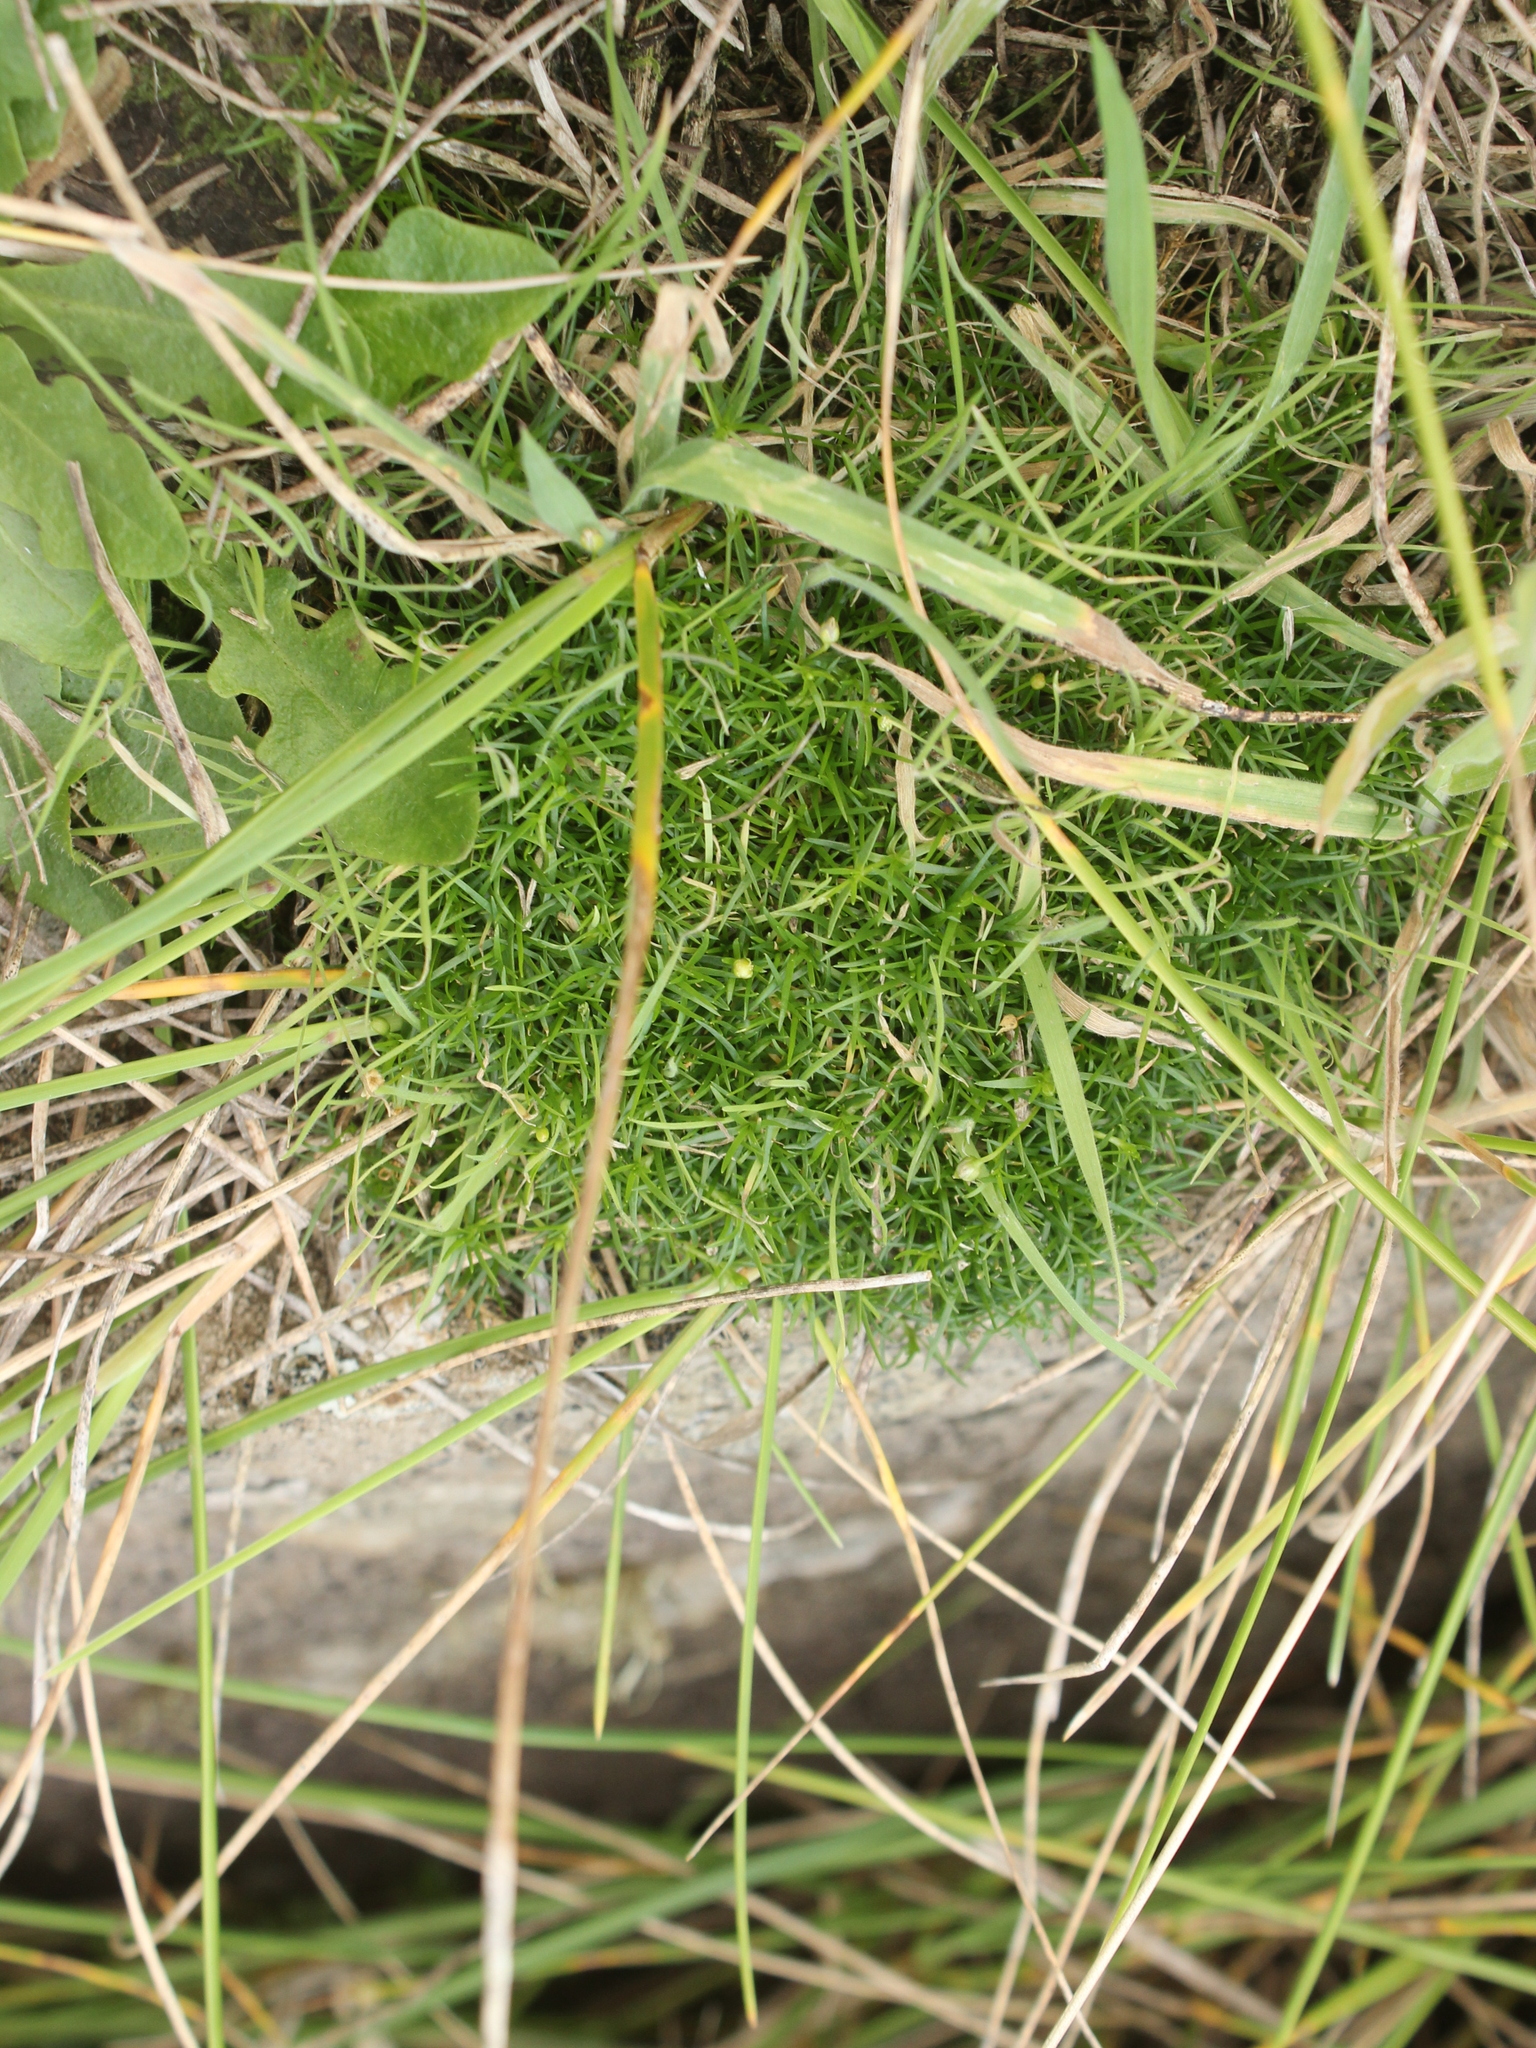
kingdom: Plantae
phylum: Tracheophyta
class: Magnoliopsida
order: Caryophyllales
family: Caryophyllaceae
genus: Sagina
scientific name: Sagina procumbens
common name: Procumbent pearlwort
